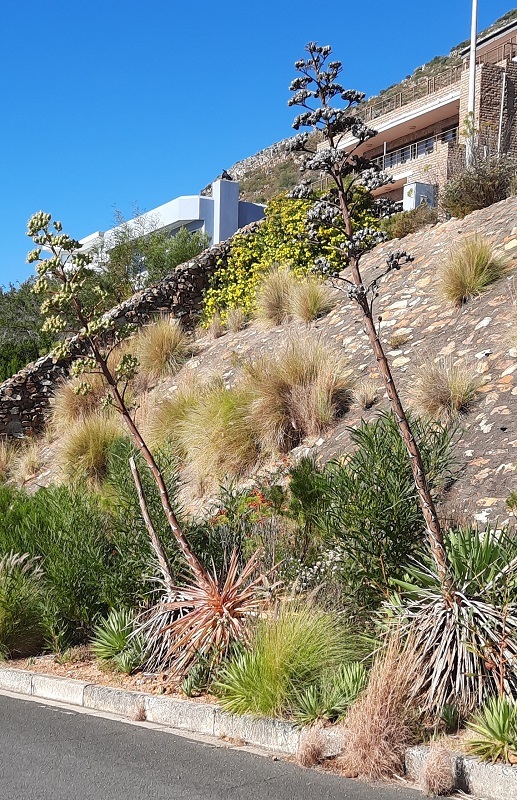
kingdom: Plantae
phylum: Tracheophyta
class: Liliopsida
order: Asparagales
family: Asparagaceae
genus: Agave
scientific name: Agave angustifolia
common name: Mescal agave
